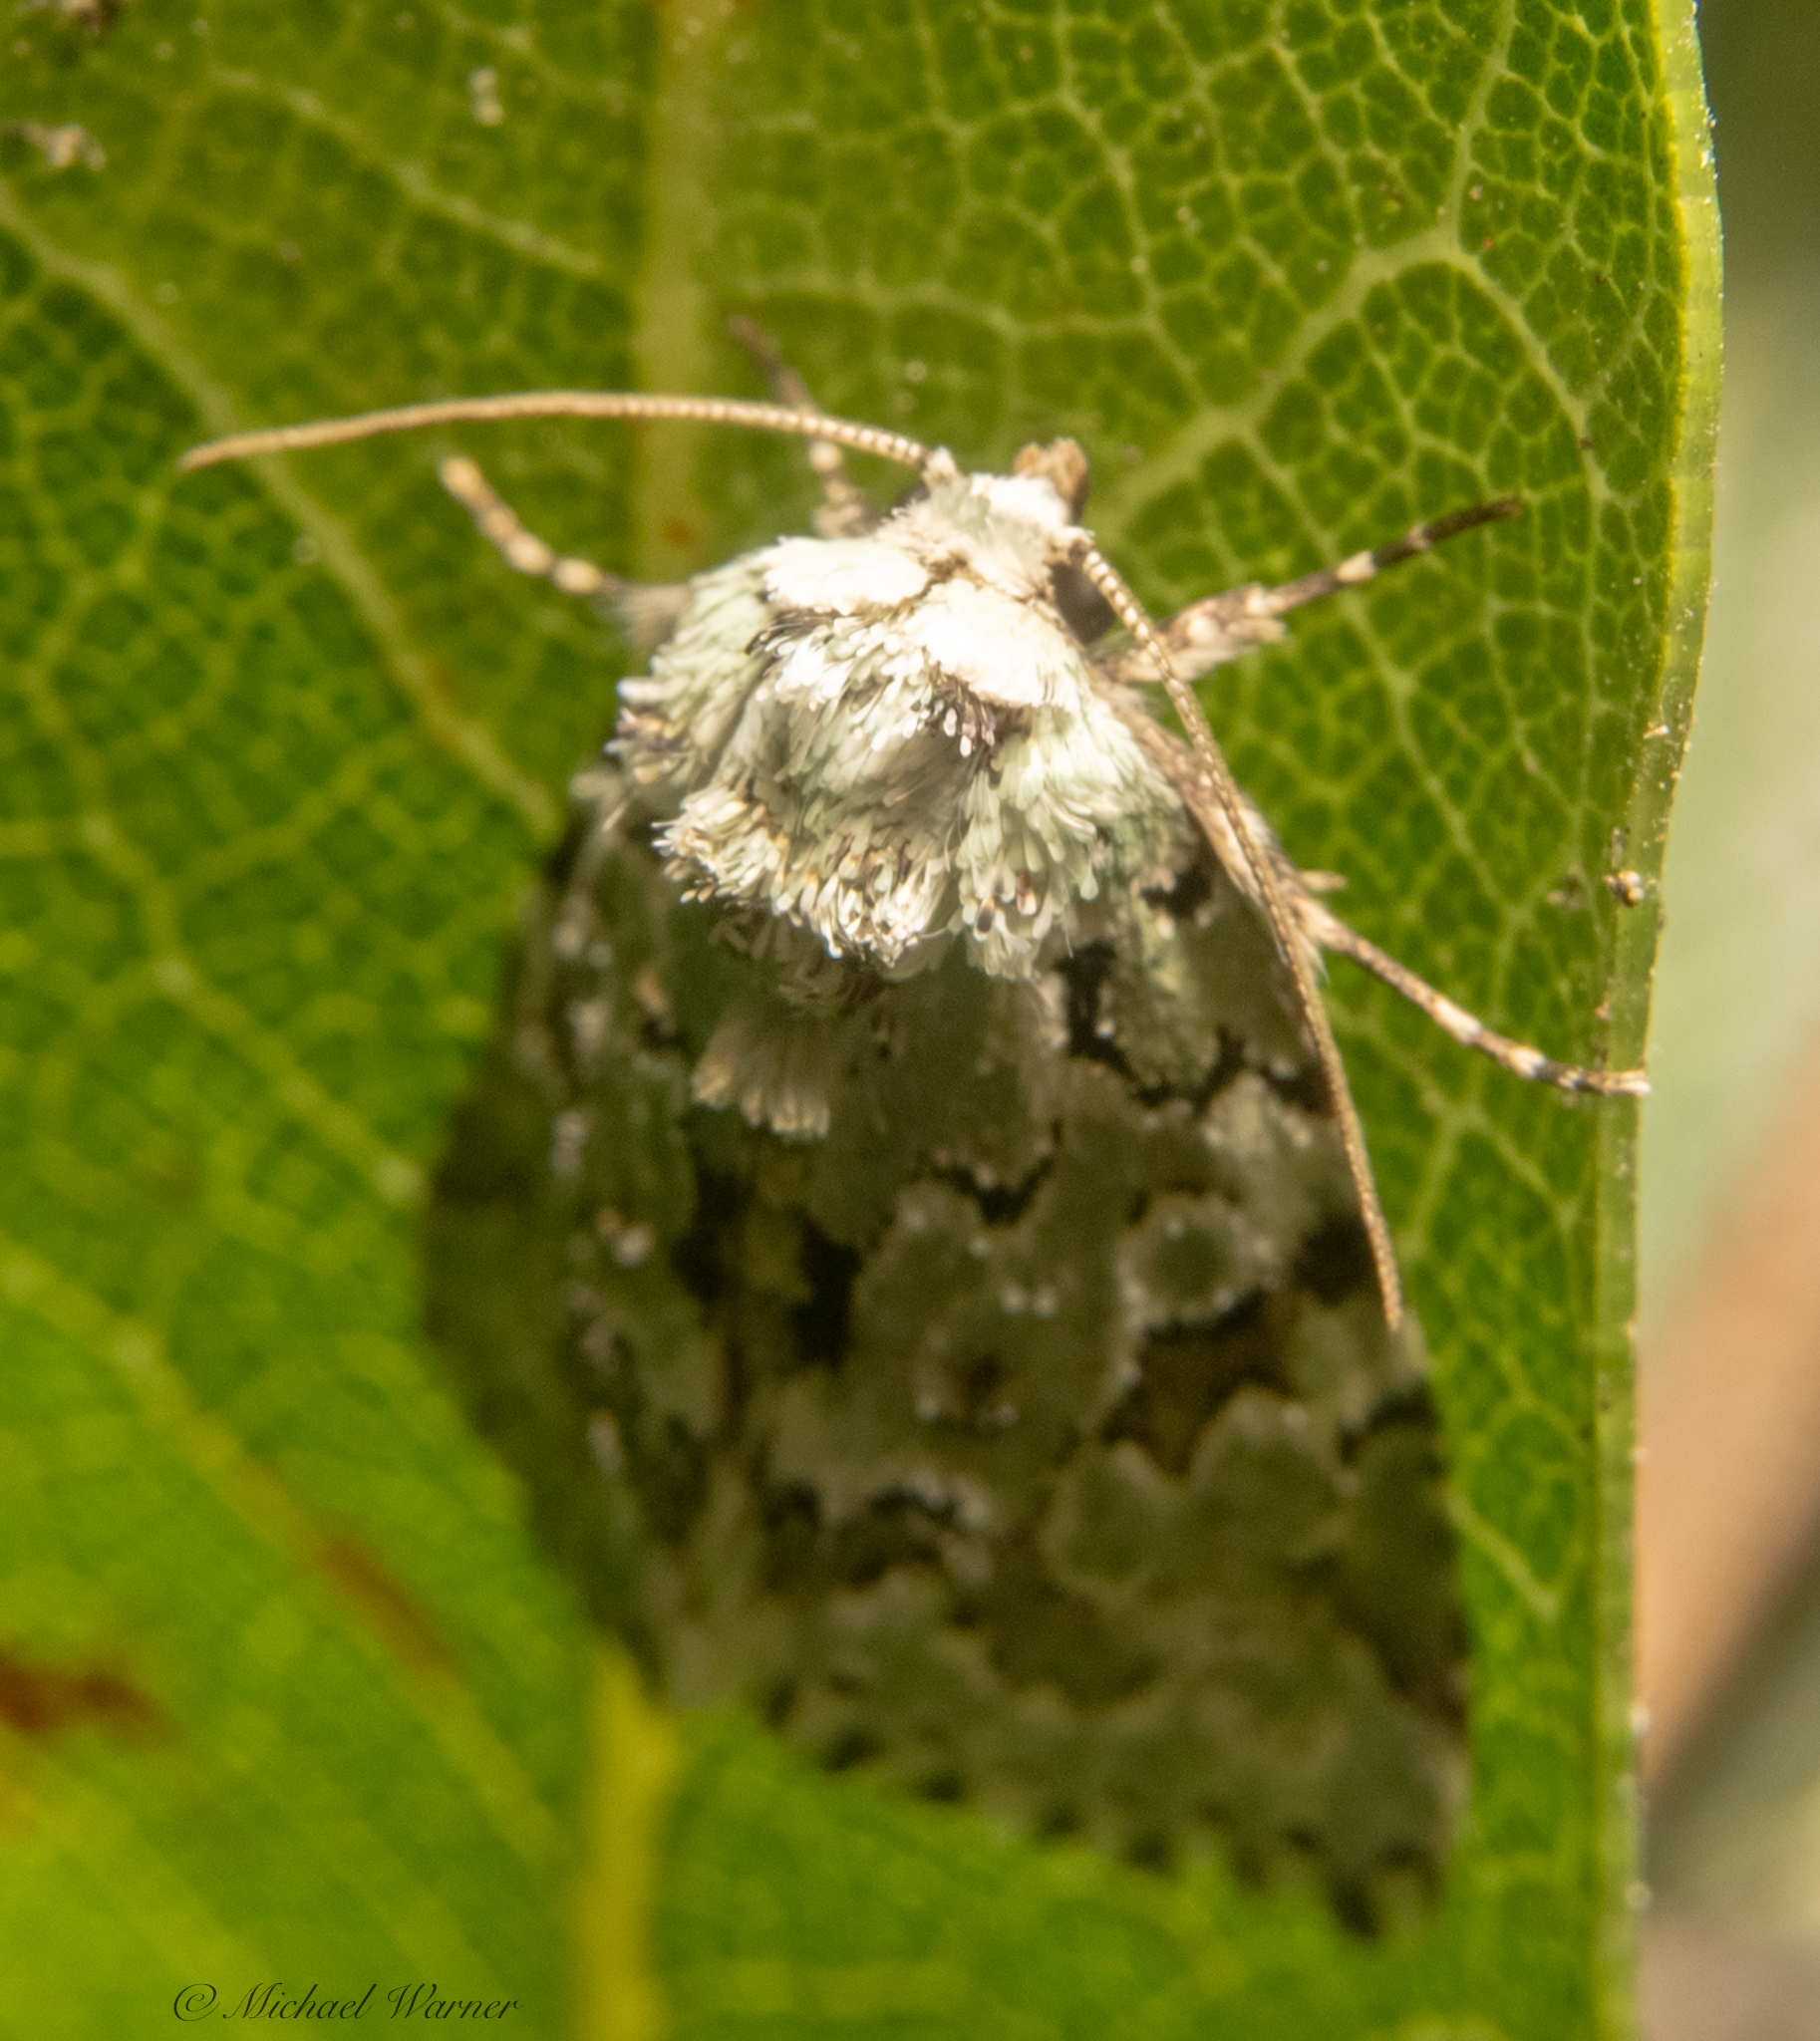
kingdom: Animalia
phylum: Arthropoda
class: Insecta
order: Lepidoptera
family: Noctuidae
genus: Bryolymnia
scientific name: Bryolymnia viridata
